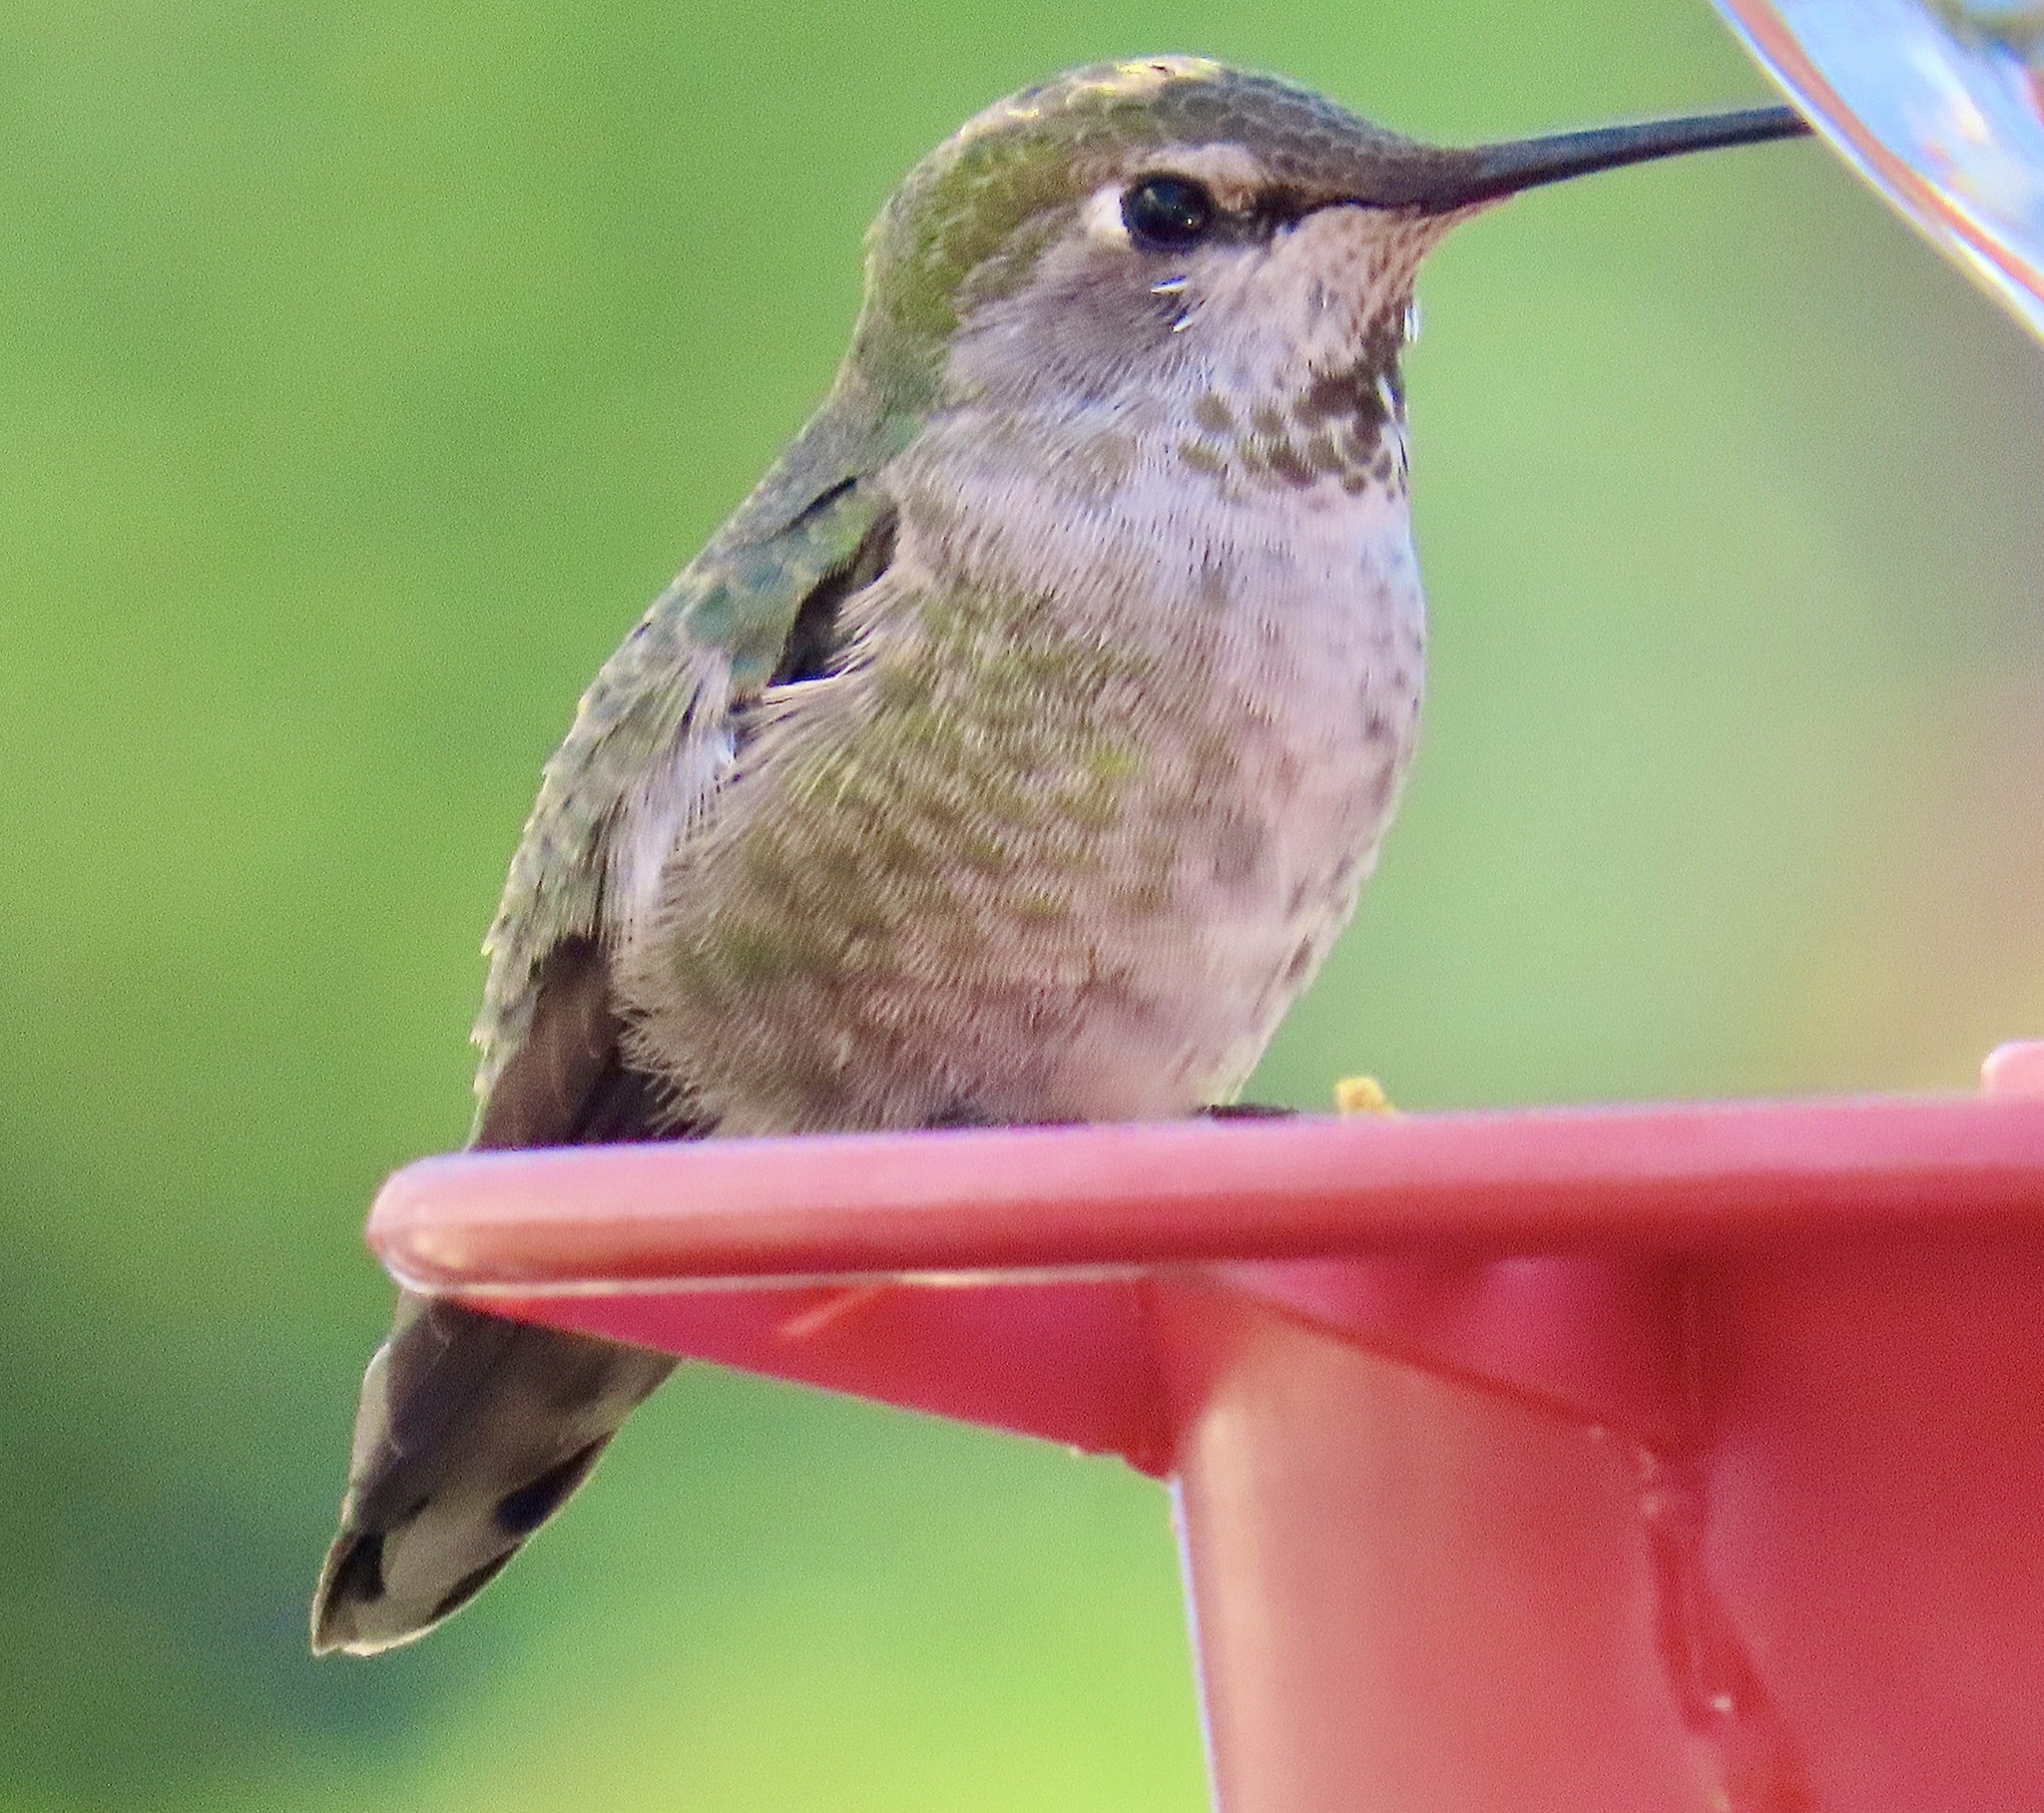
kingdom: Animalia
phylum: Chordata
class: Aves
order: Apodiformes
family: Trochilidae
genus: Calypte
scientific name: Calypte anna
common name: Anna's hummingbird
